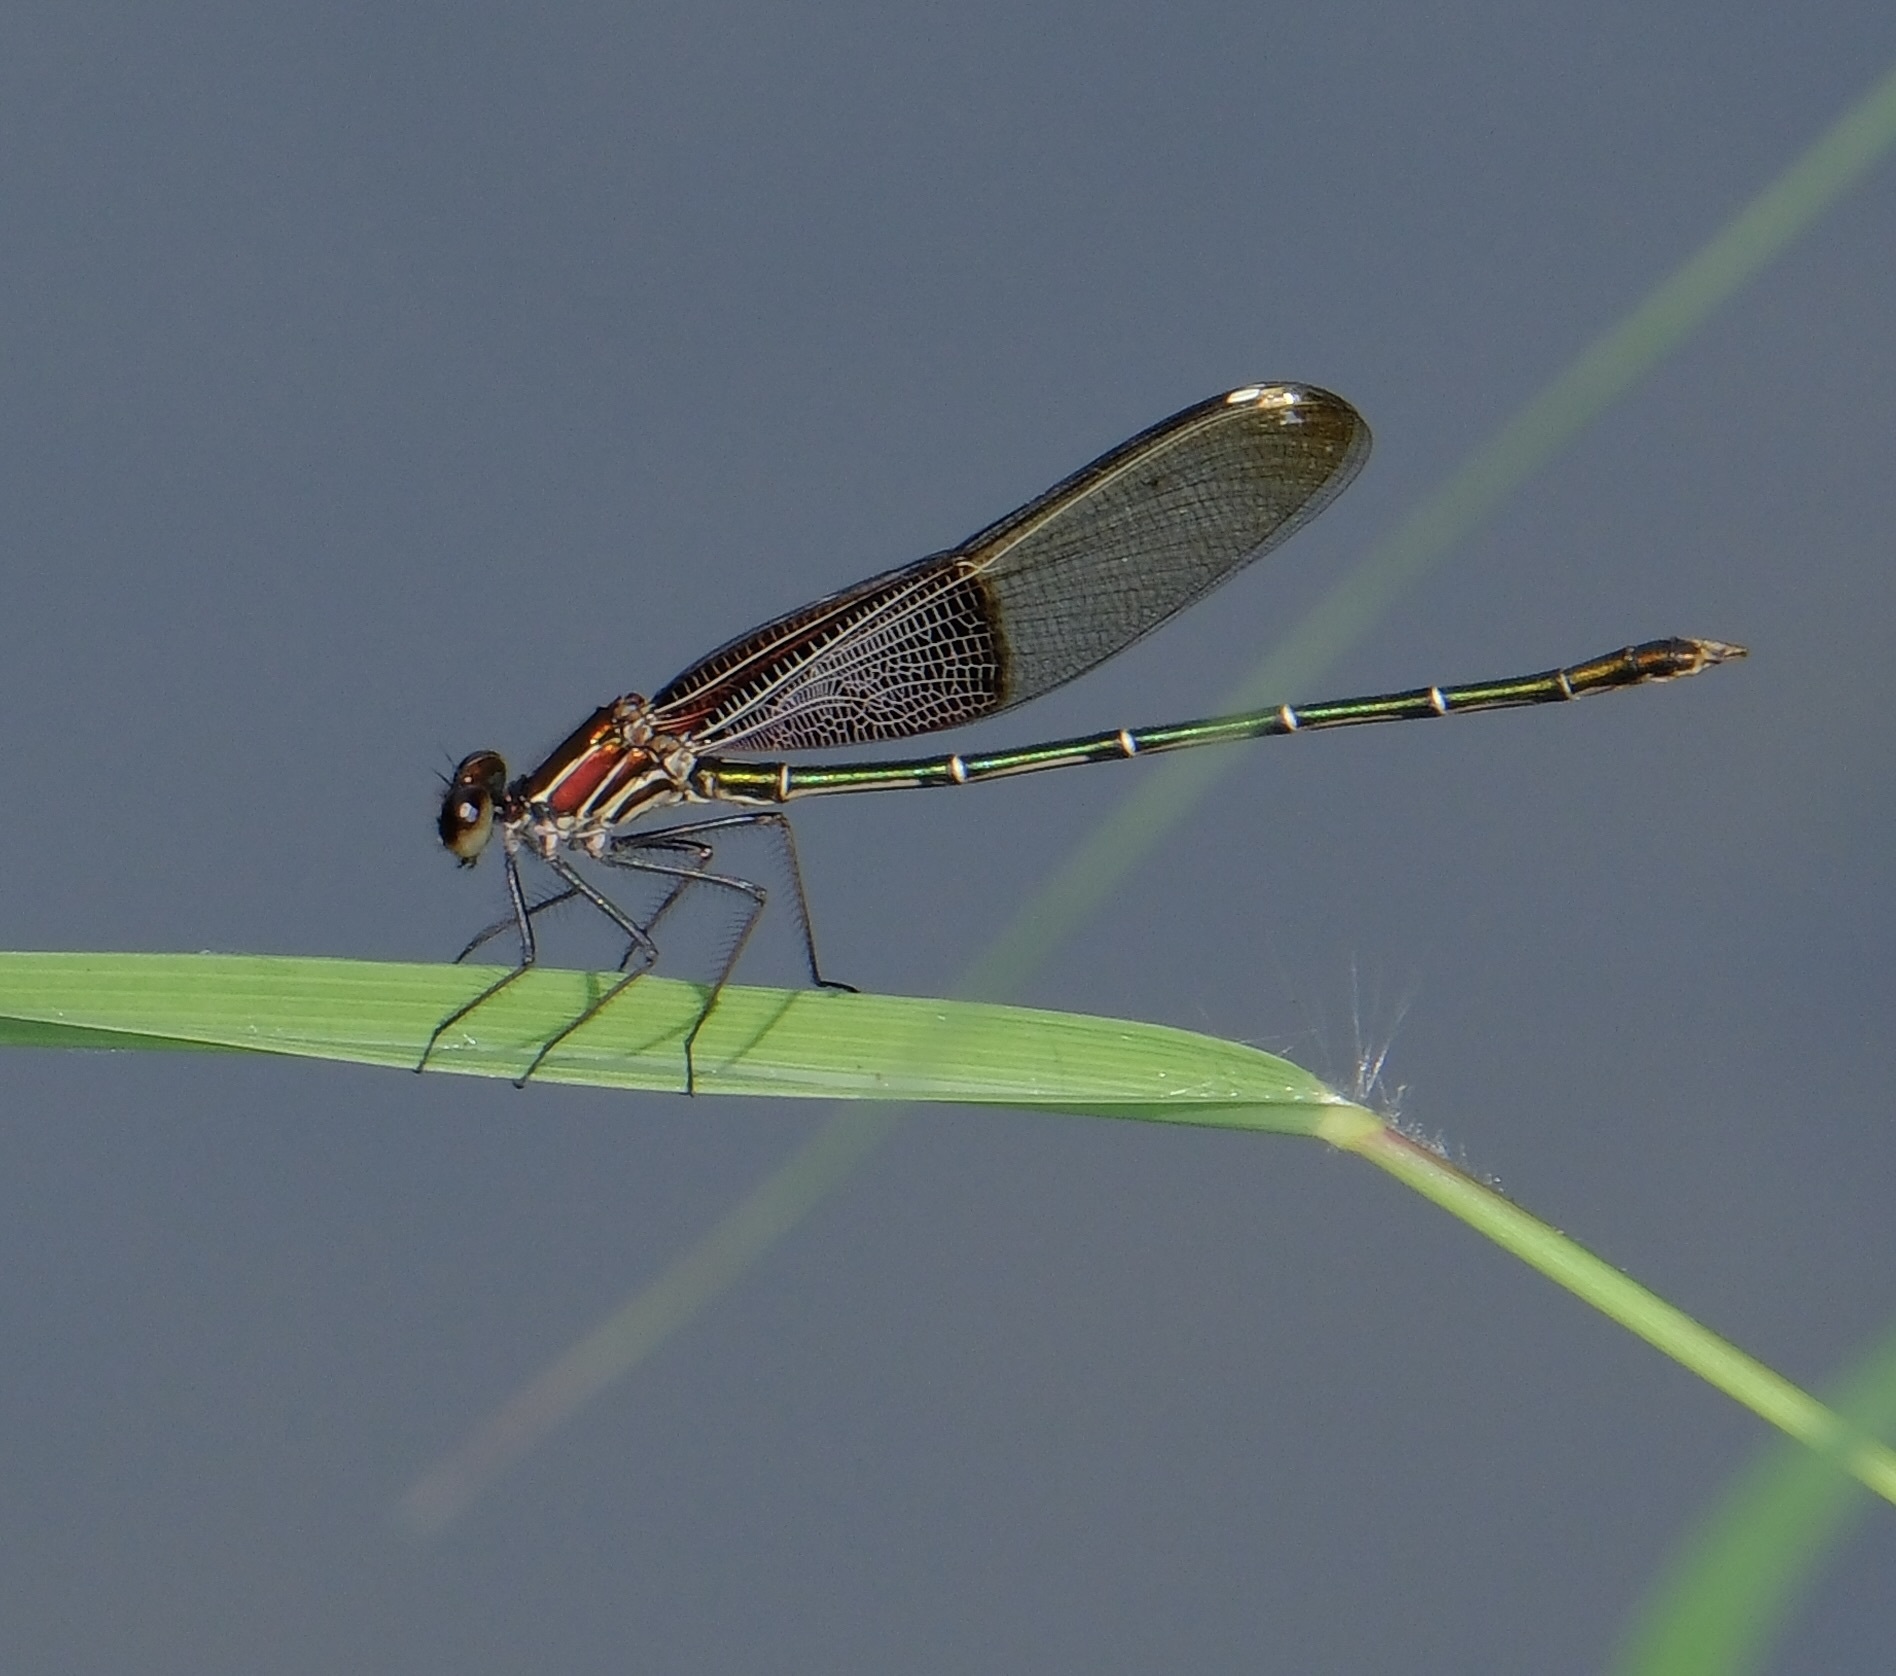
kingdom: Animalia
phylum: Arthropoda
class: Insecta
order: Odonata
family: Calopterygidae
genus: Hetaerina
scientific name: Hetaerina americana
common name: American rubyspot
